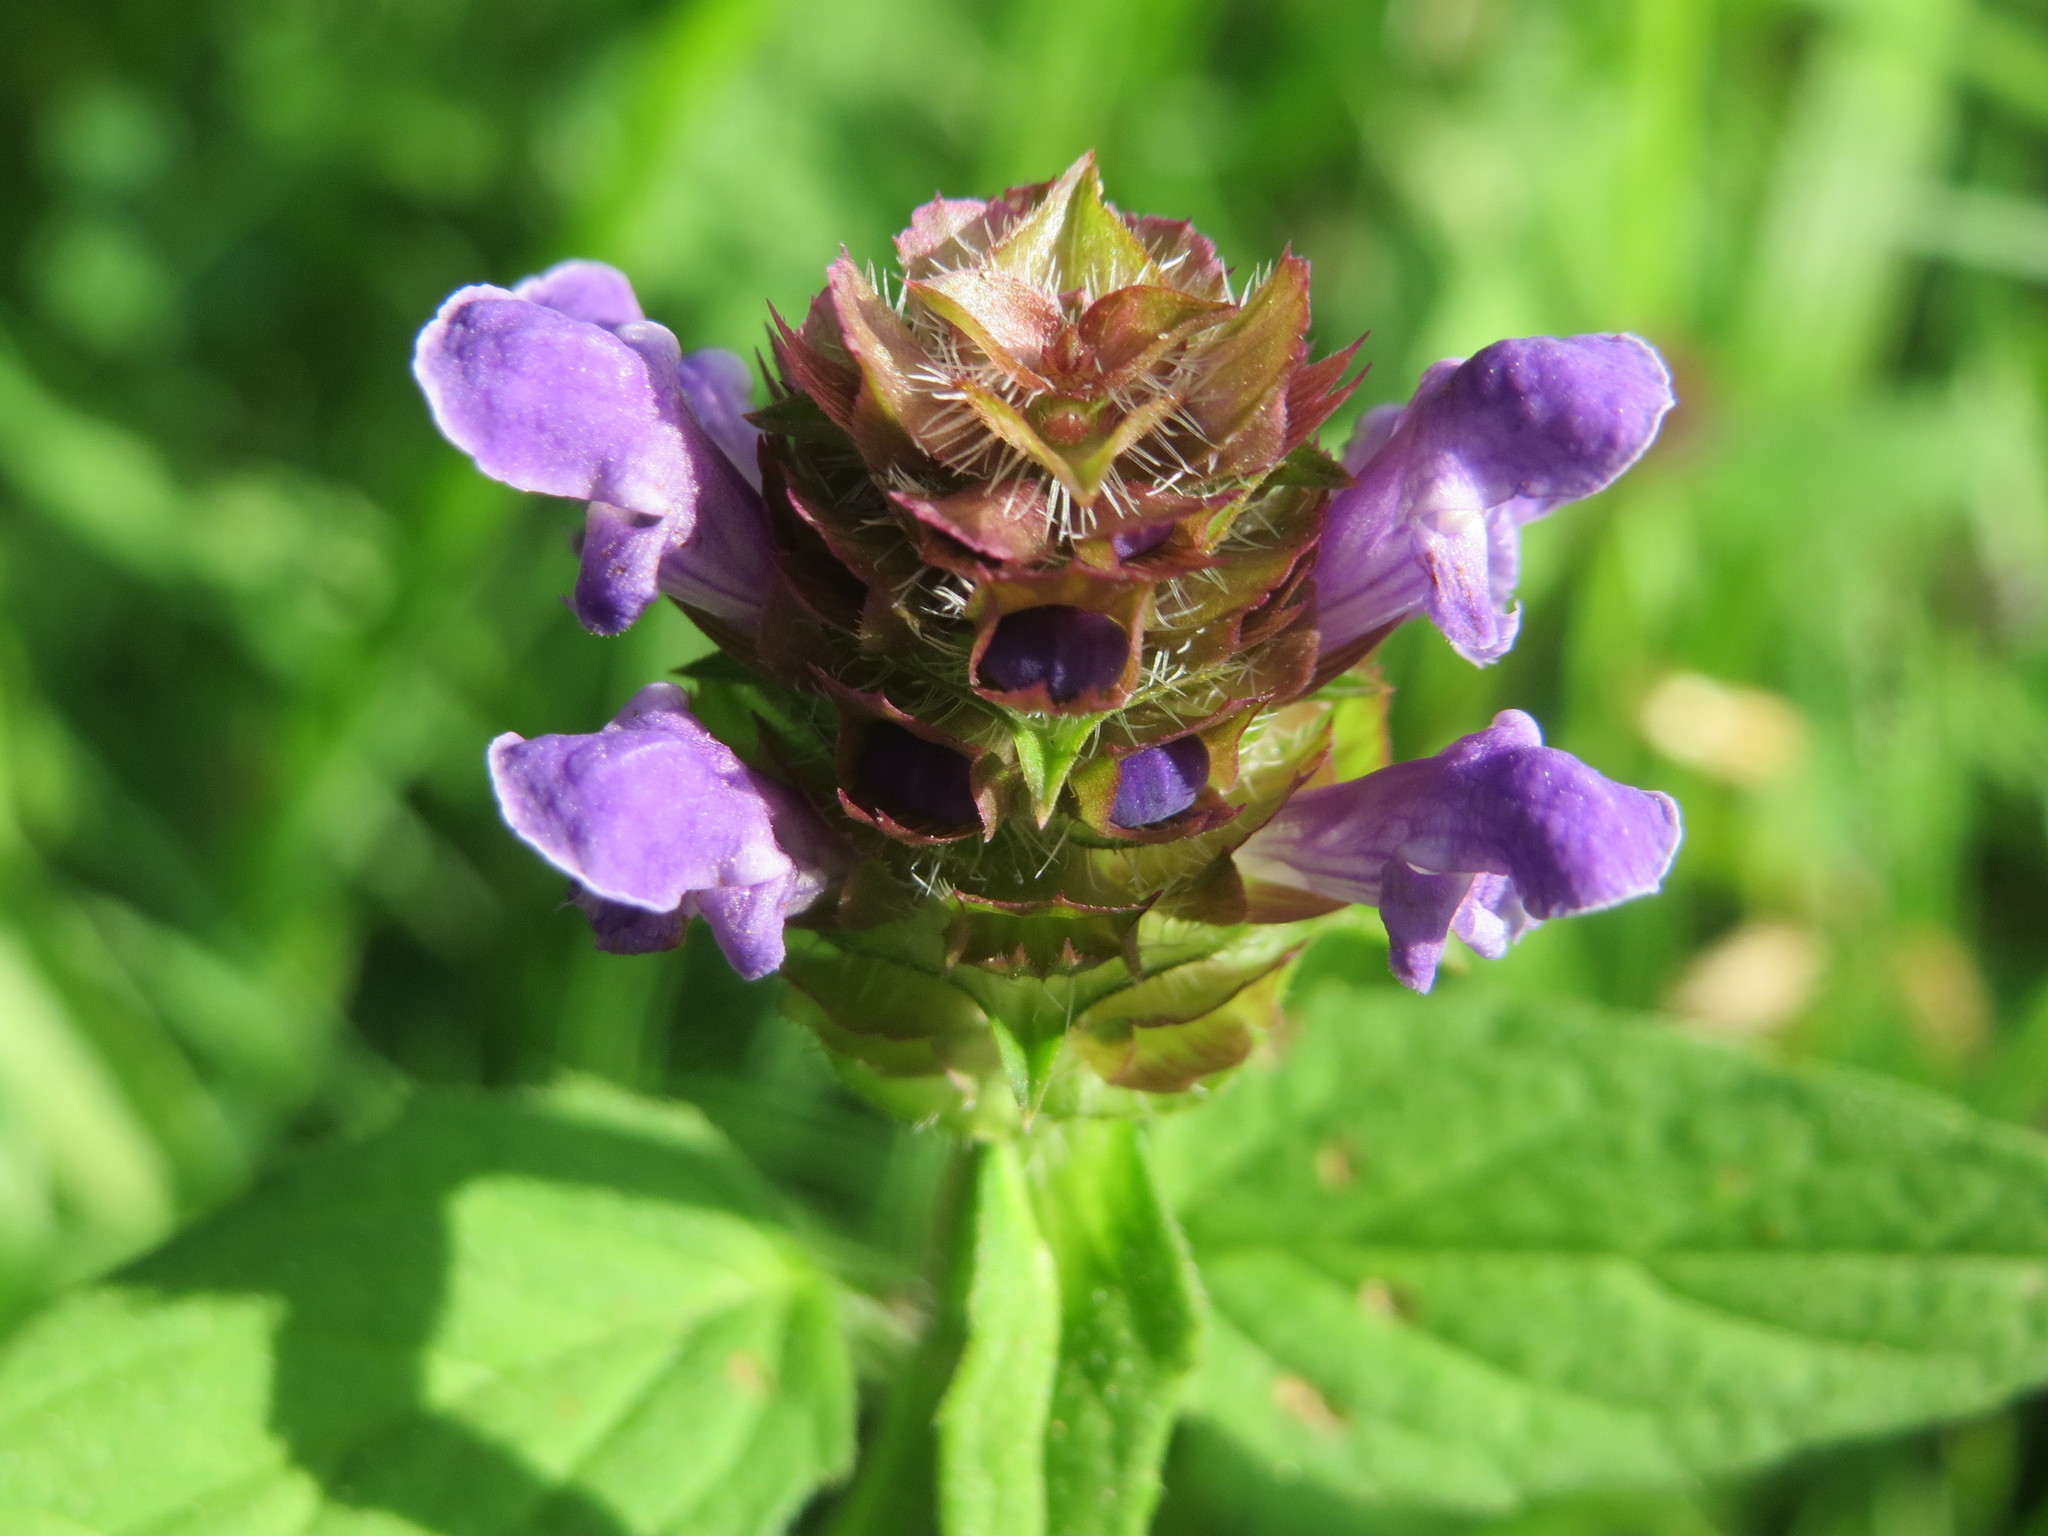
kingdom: Plantae
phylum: Tracheophyta
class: Magnoliopsida
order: Lamiales
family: Lamiaceae
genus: Prunella
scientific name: Prunella vulgaris
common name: Heal-all
